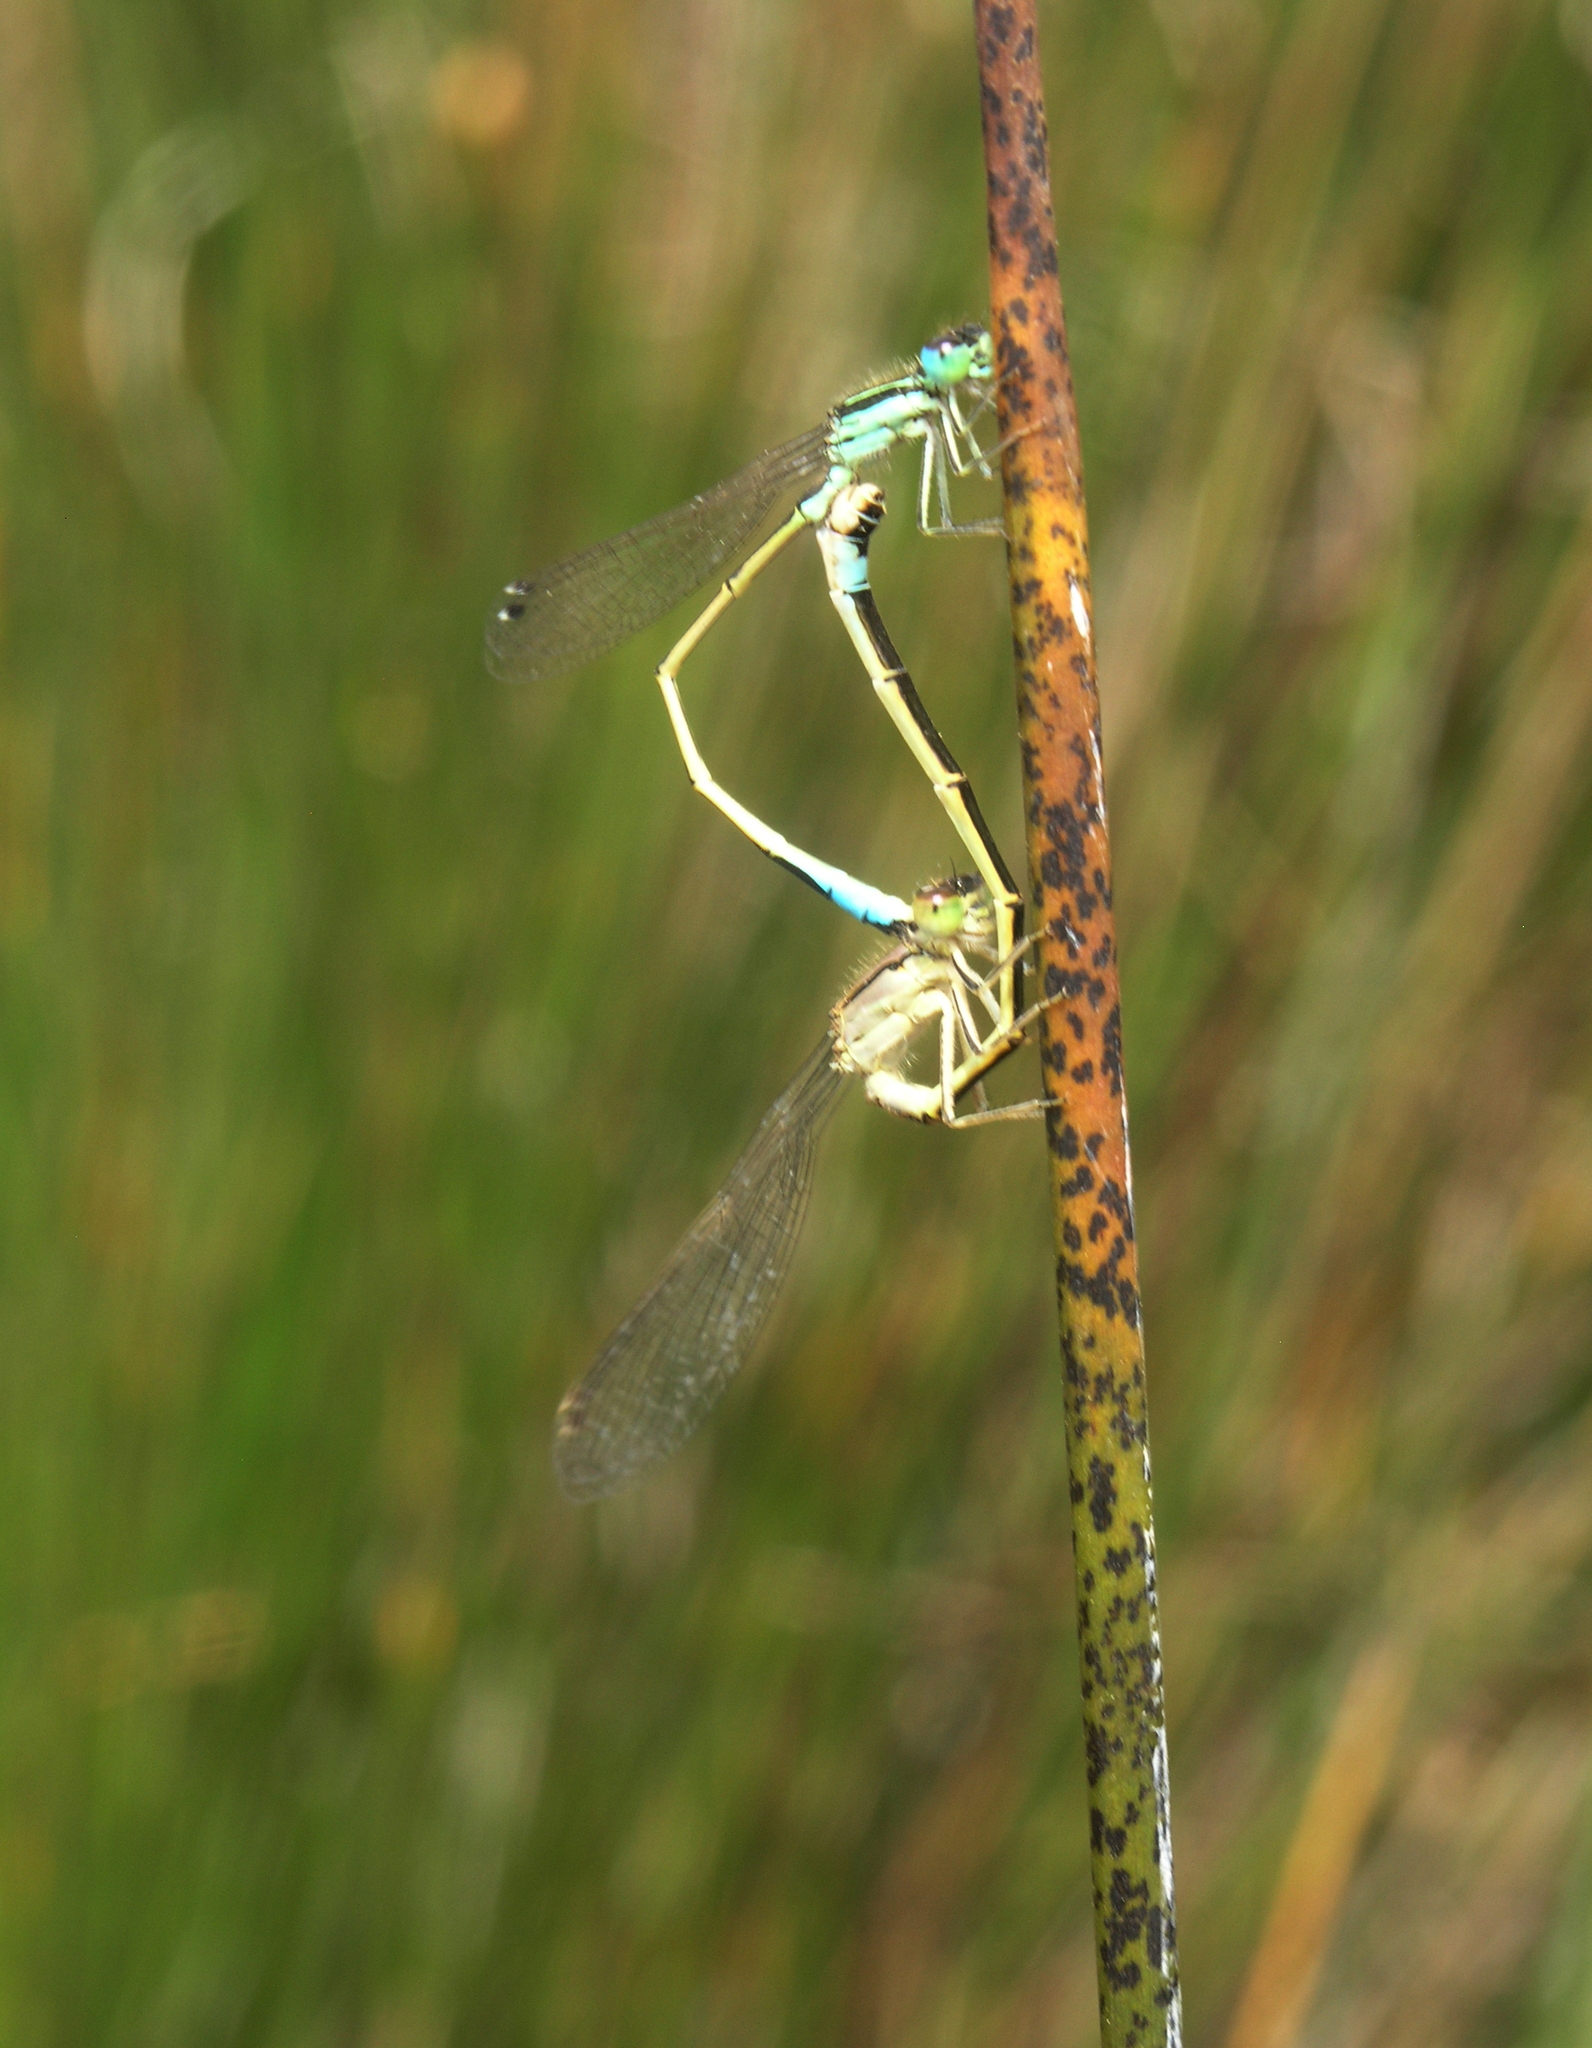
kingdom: Animalia
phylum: Arthropoda
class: Insecta
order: Odonata
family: Coenagrionidae
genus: Ischnura
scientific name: Ischnura graellsii
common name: Iberian bluetail
